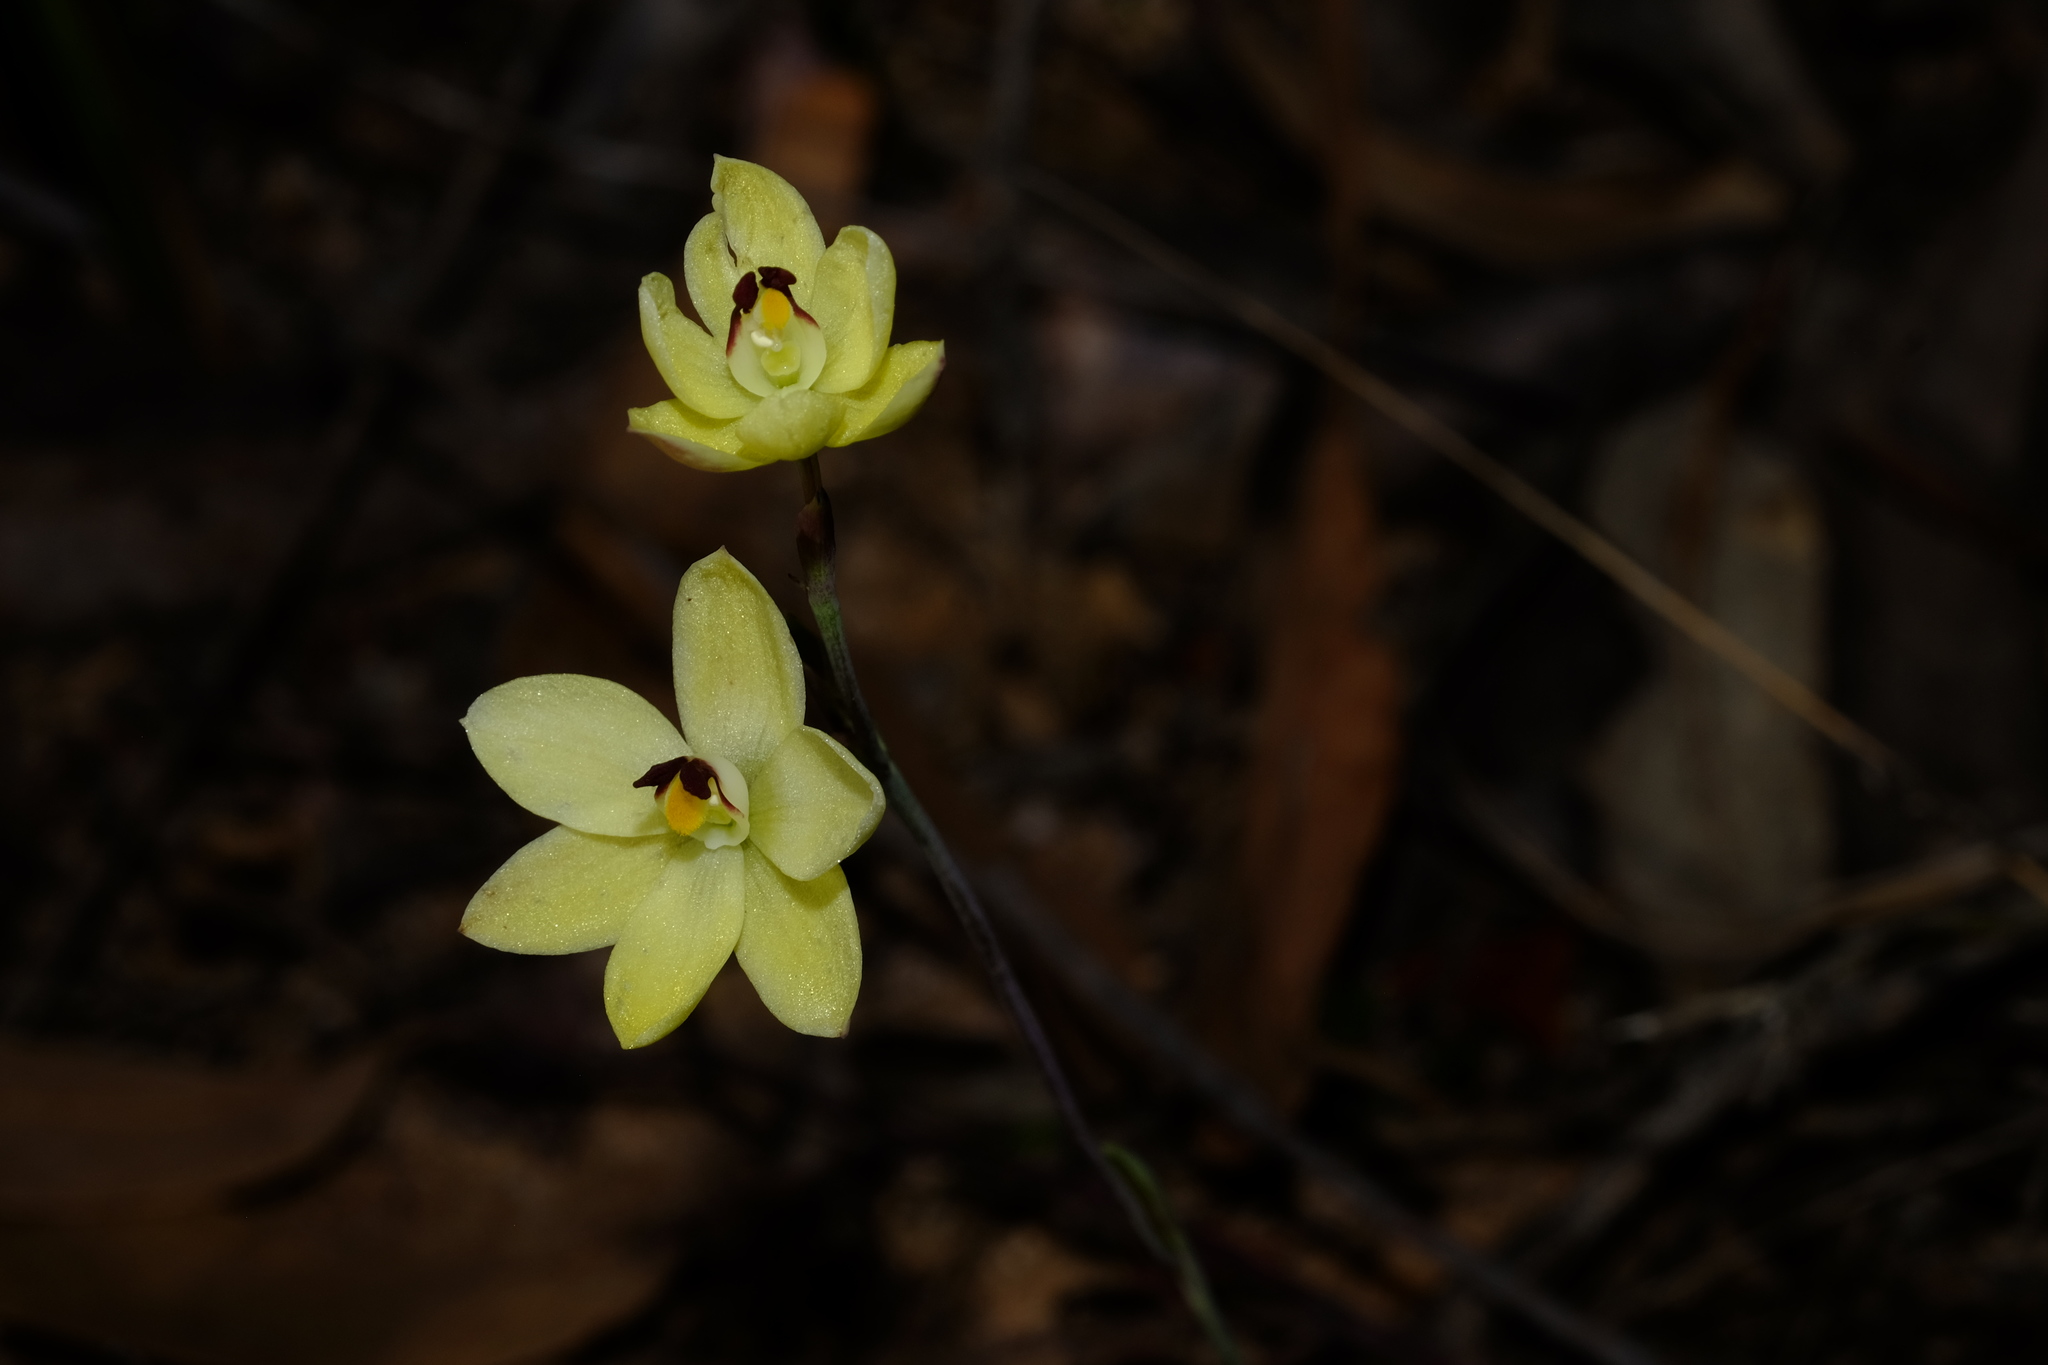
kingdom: Plantae
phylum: Tracheophyta
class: Liliopsida
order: Asparagales
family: Orchidaceae
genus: Thelymitra
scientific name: Thelymitra antennifera
